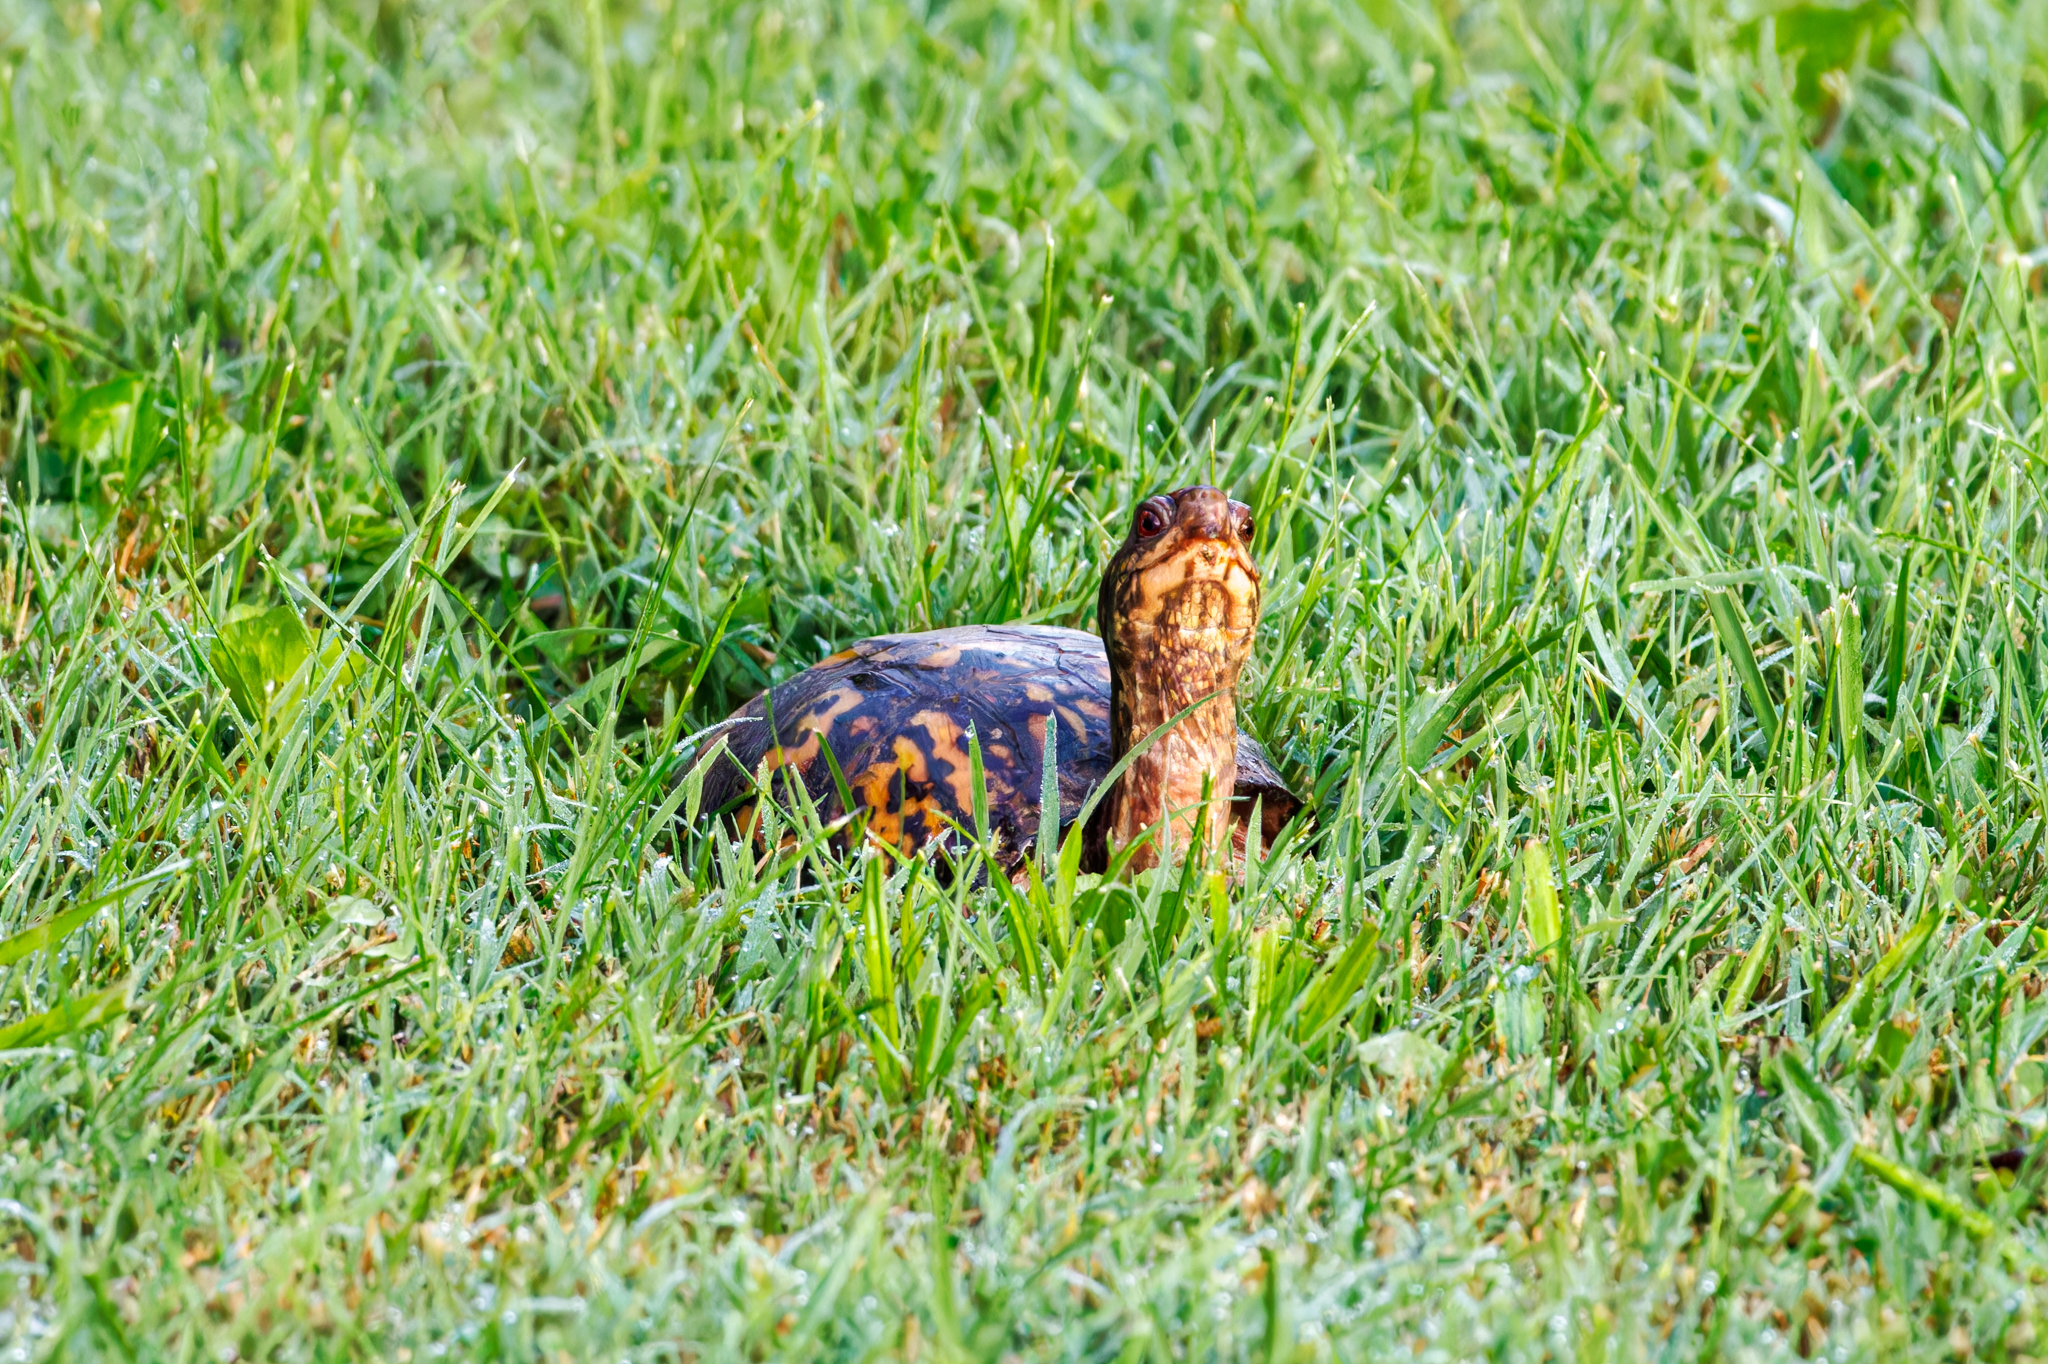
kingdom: Animalia
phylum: Chordata
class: Testudines
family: Emydidae
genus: Terrapene
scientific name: Terrapene carolina
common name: Common box turtle
